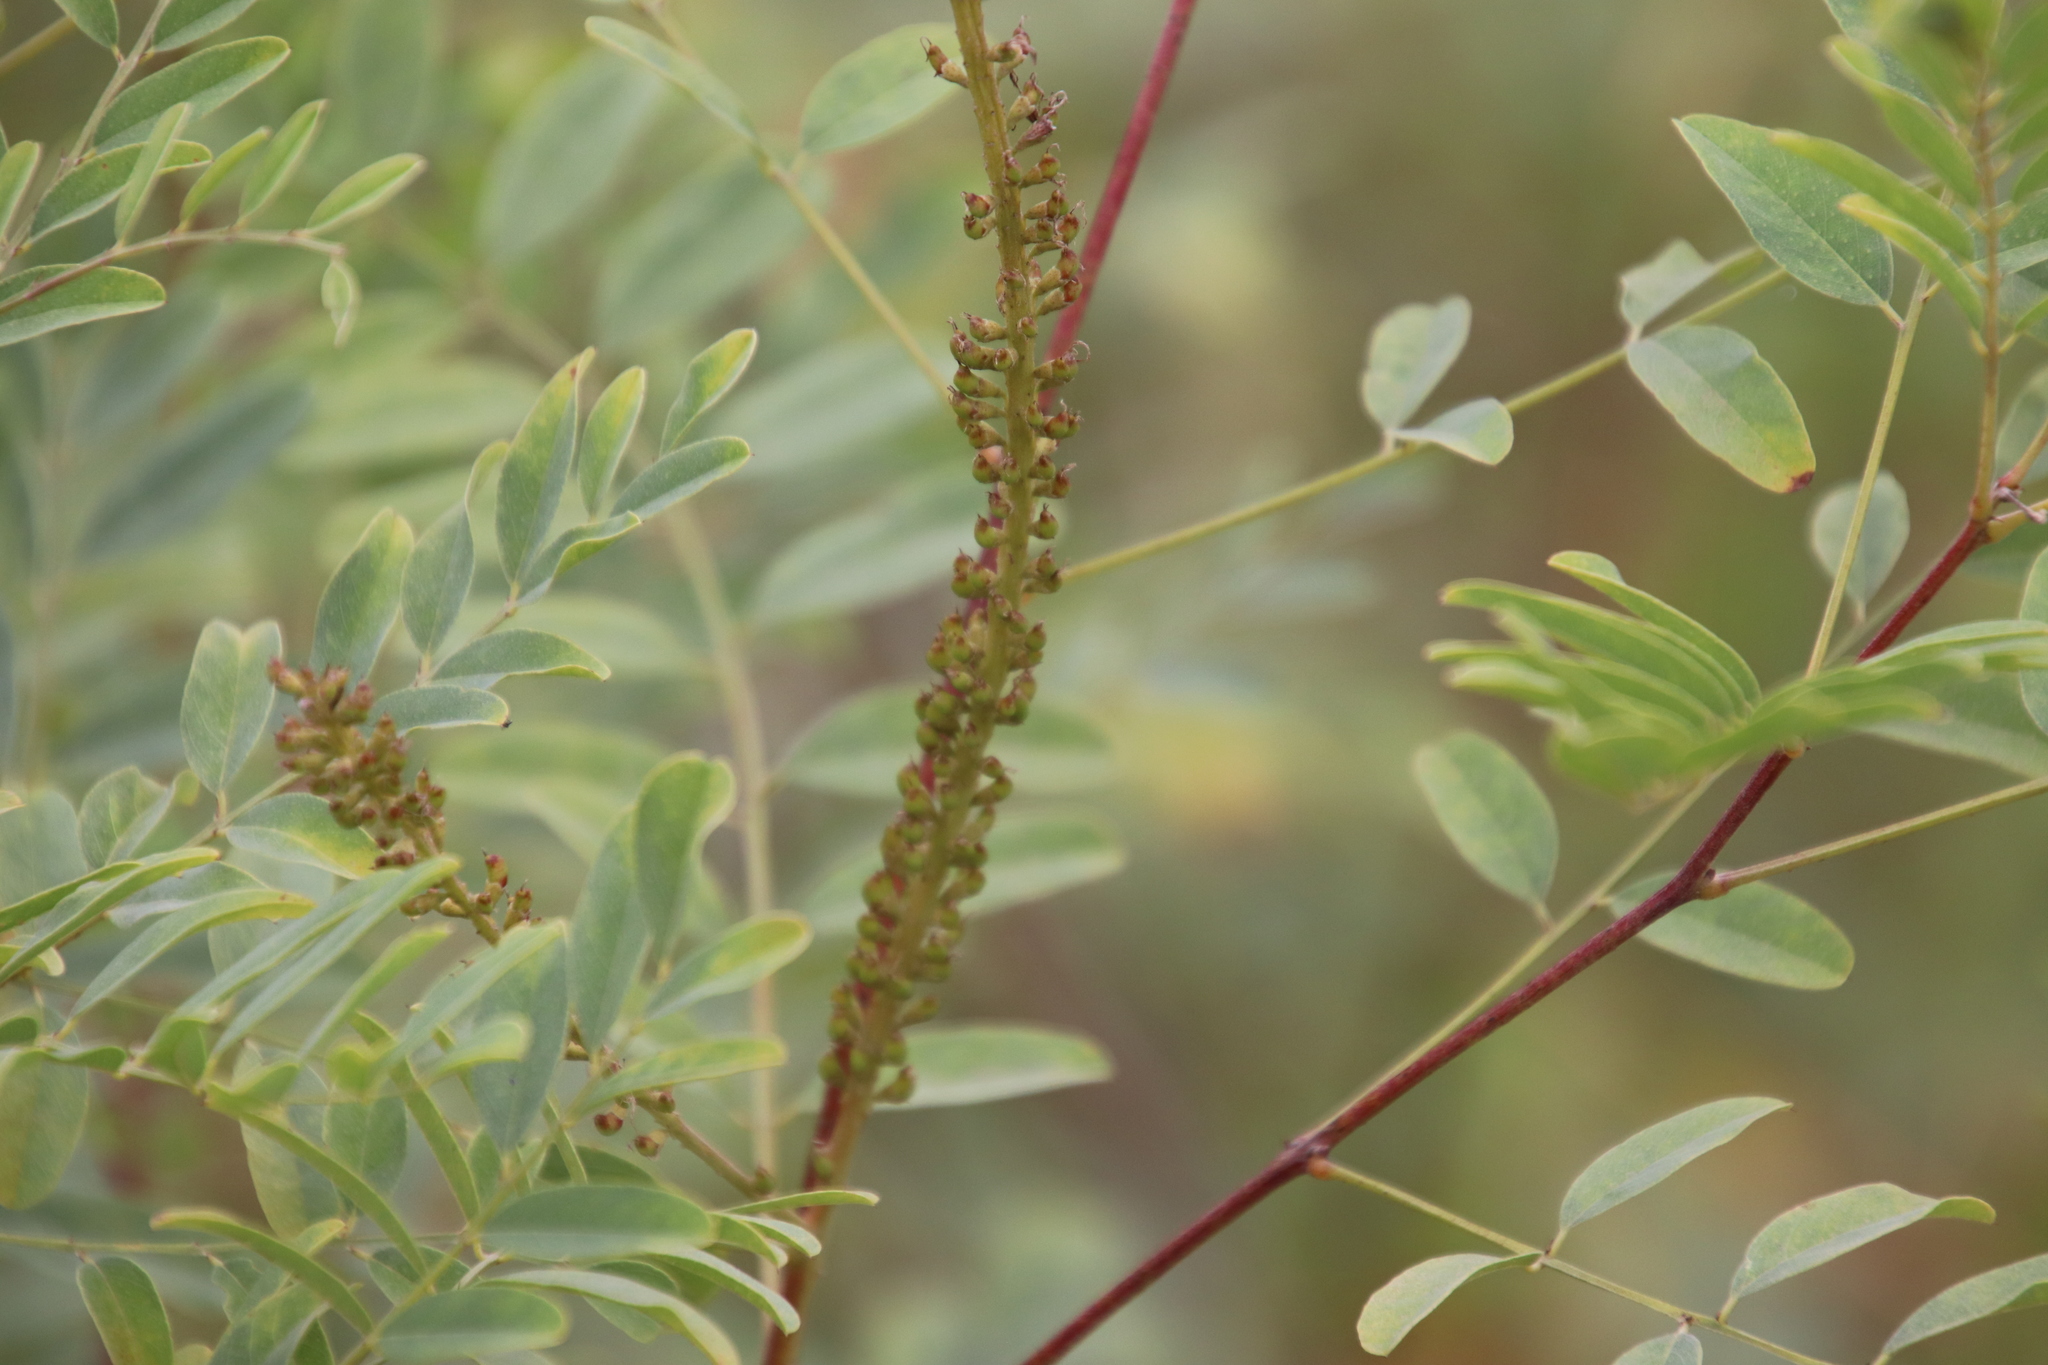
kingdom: Plantae
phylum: Tracheophyta
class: Magnoliopsida
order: Fabales
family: Fabaceae
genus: Amorpha
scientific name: Amorpha fruticosa
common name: False indigo
